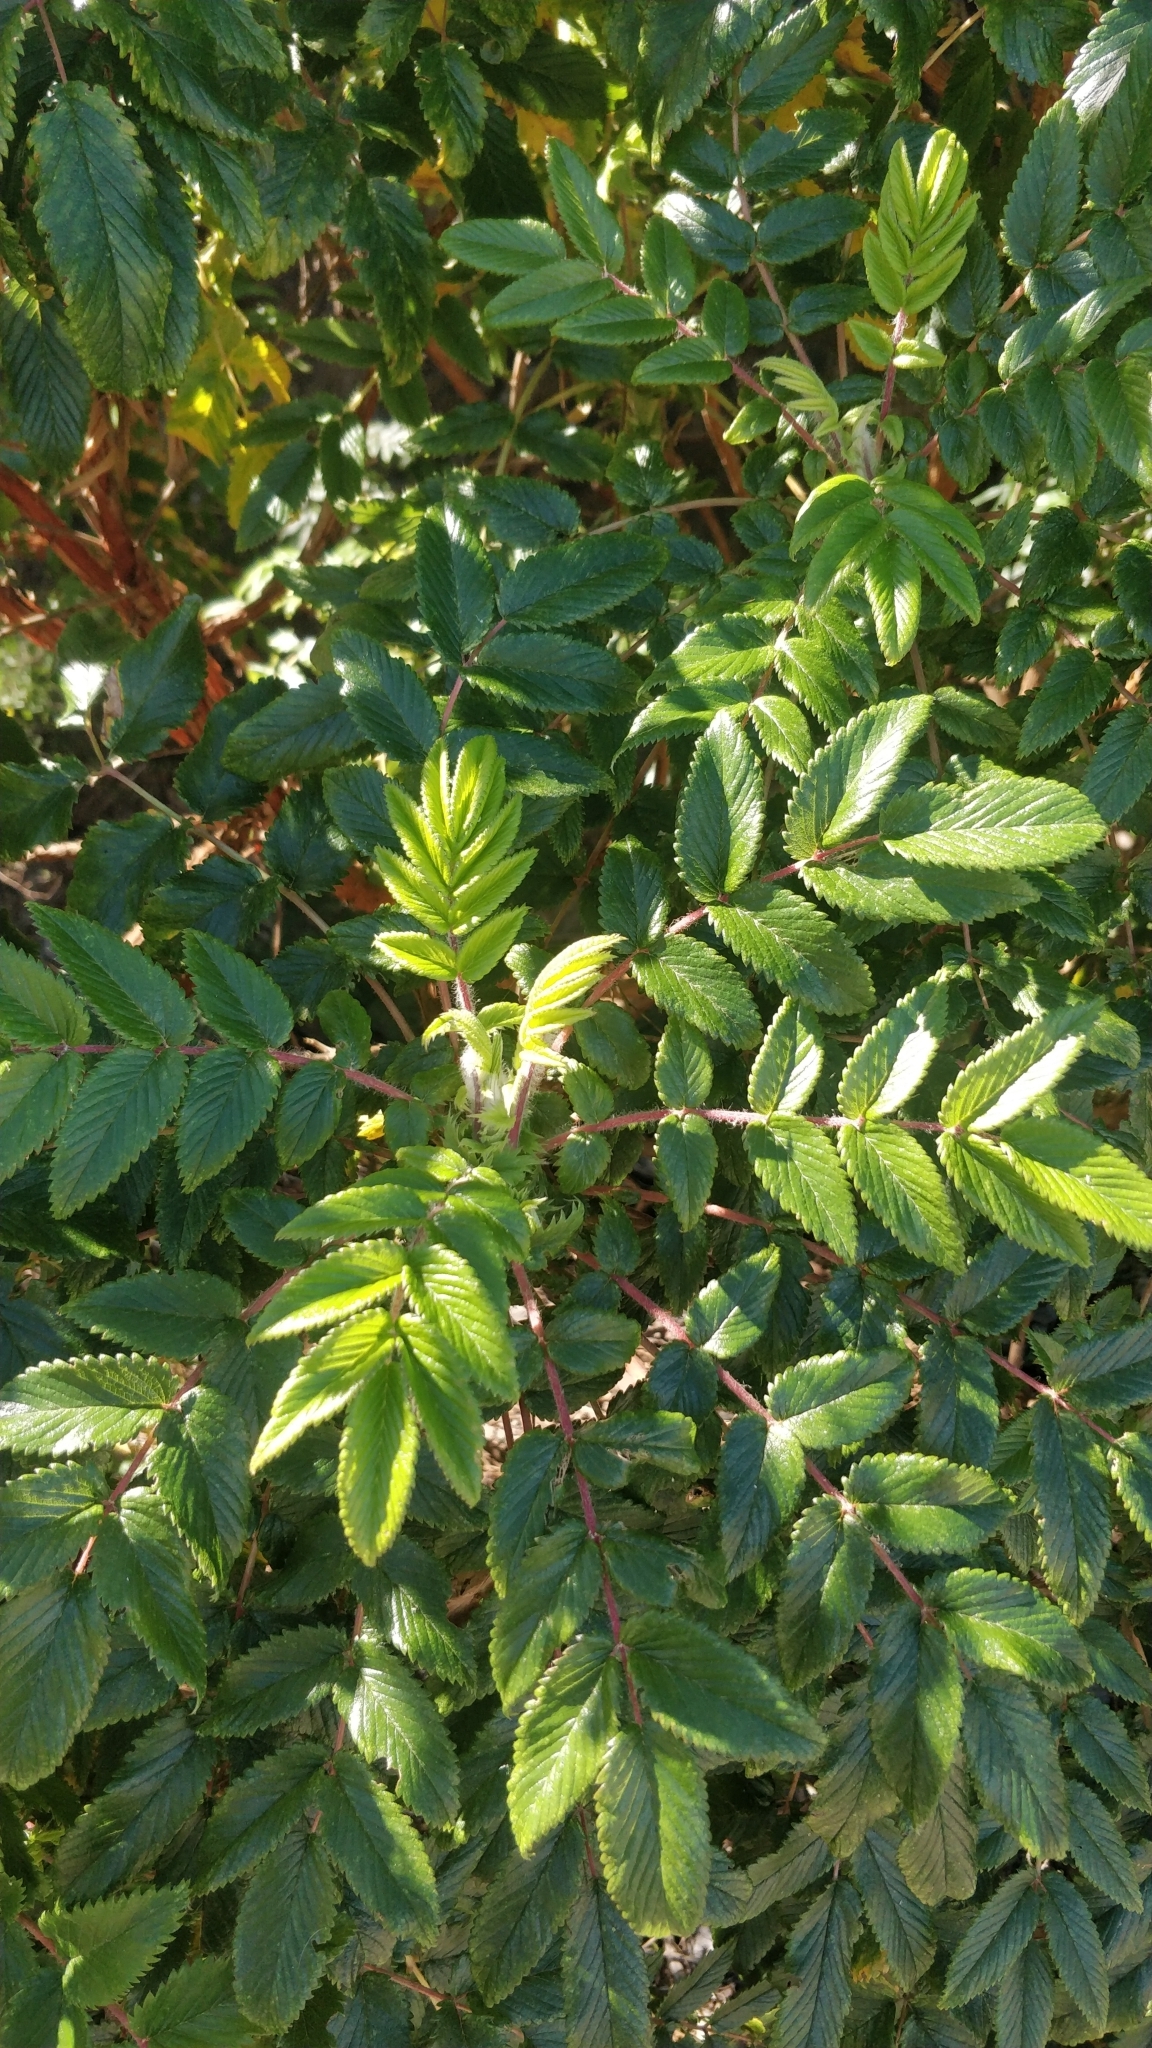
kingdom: Plantae
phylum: Tracheophyta
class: Magnoliopsida
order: Rosales
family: Rosaceae
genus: Bencomia
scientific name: Bencomia caudata
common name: Bencomia
